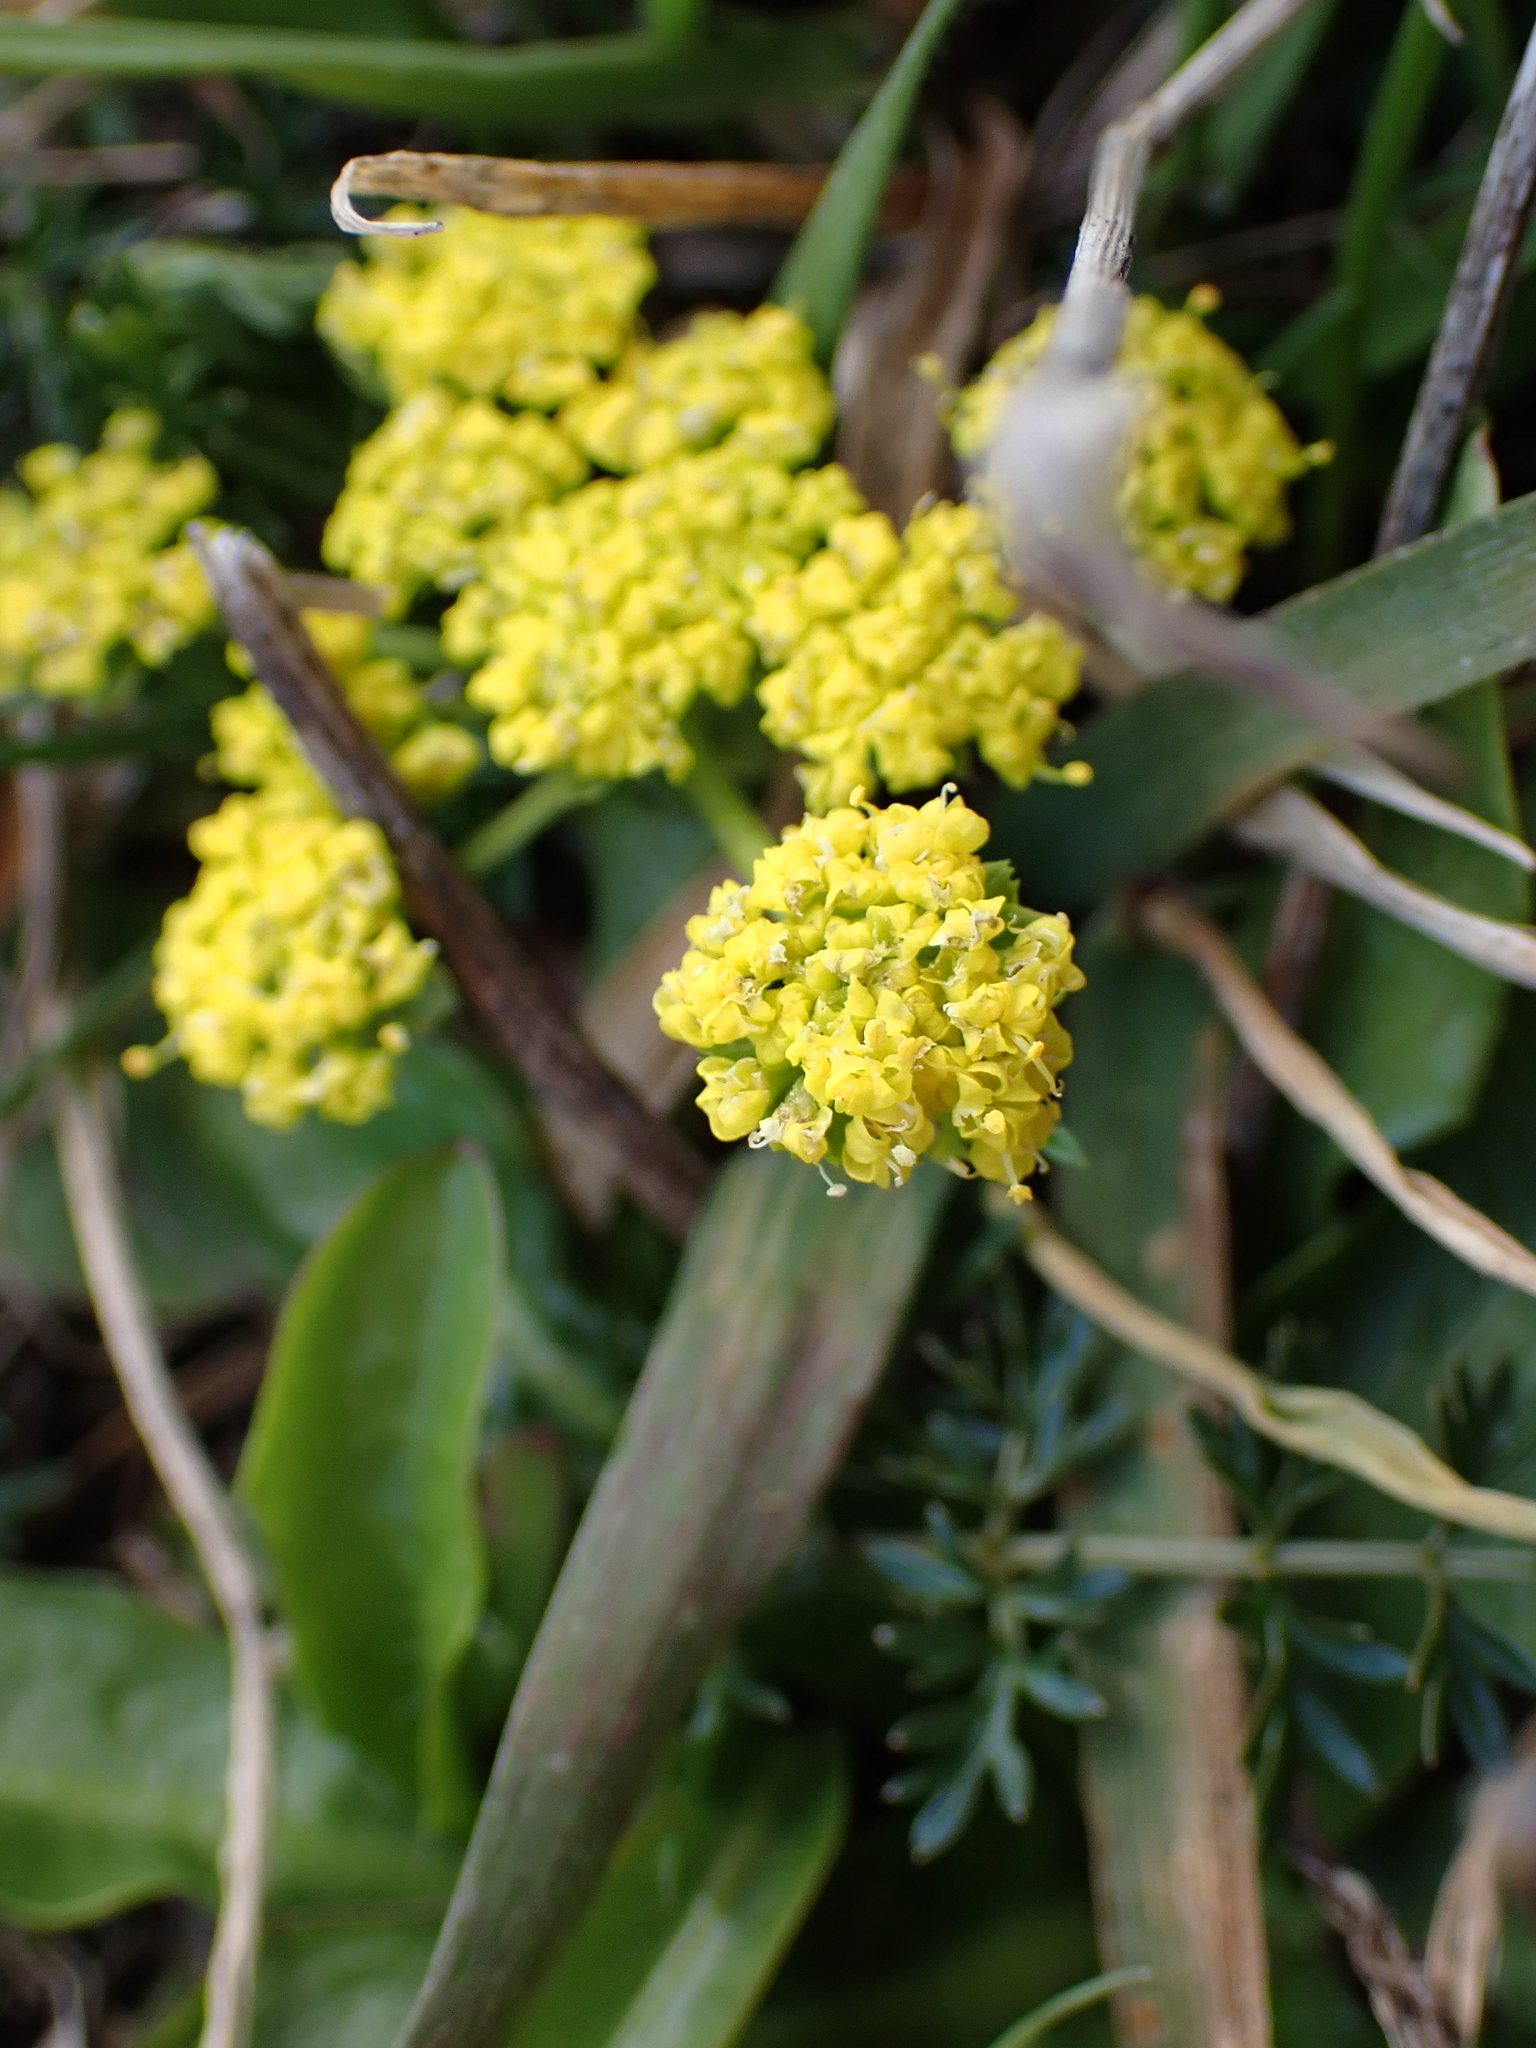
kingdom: Plantae
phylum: Tracheophyta
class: Magnoliopsida
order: Apiales
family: Apiaceae
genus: Lomatium
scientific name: Lomatium utriculatum
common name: Fine-leaf desert-parsley
